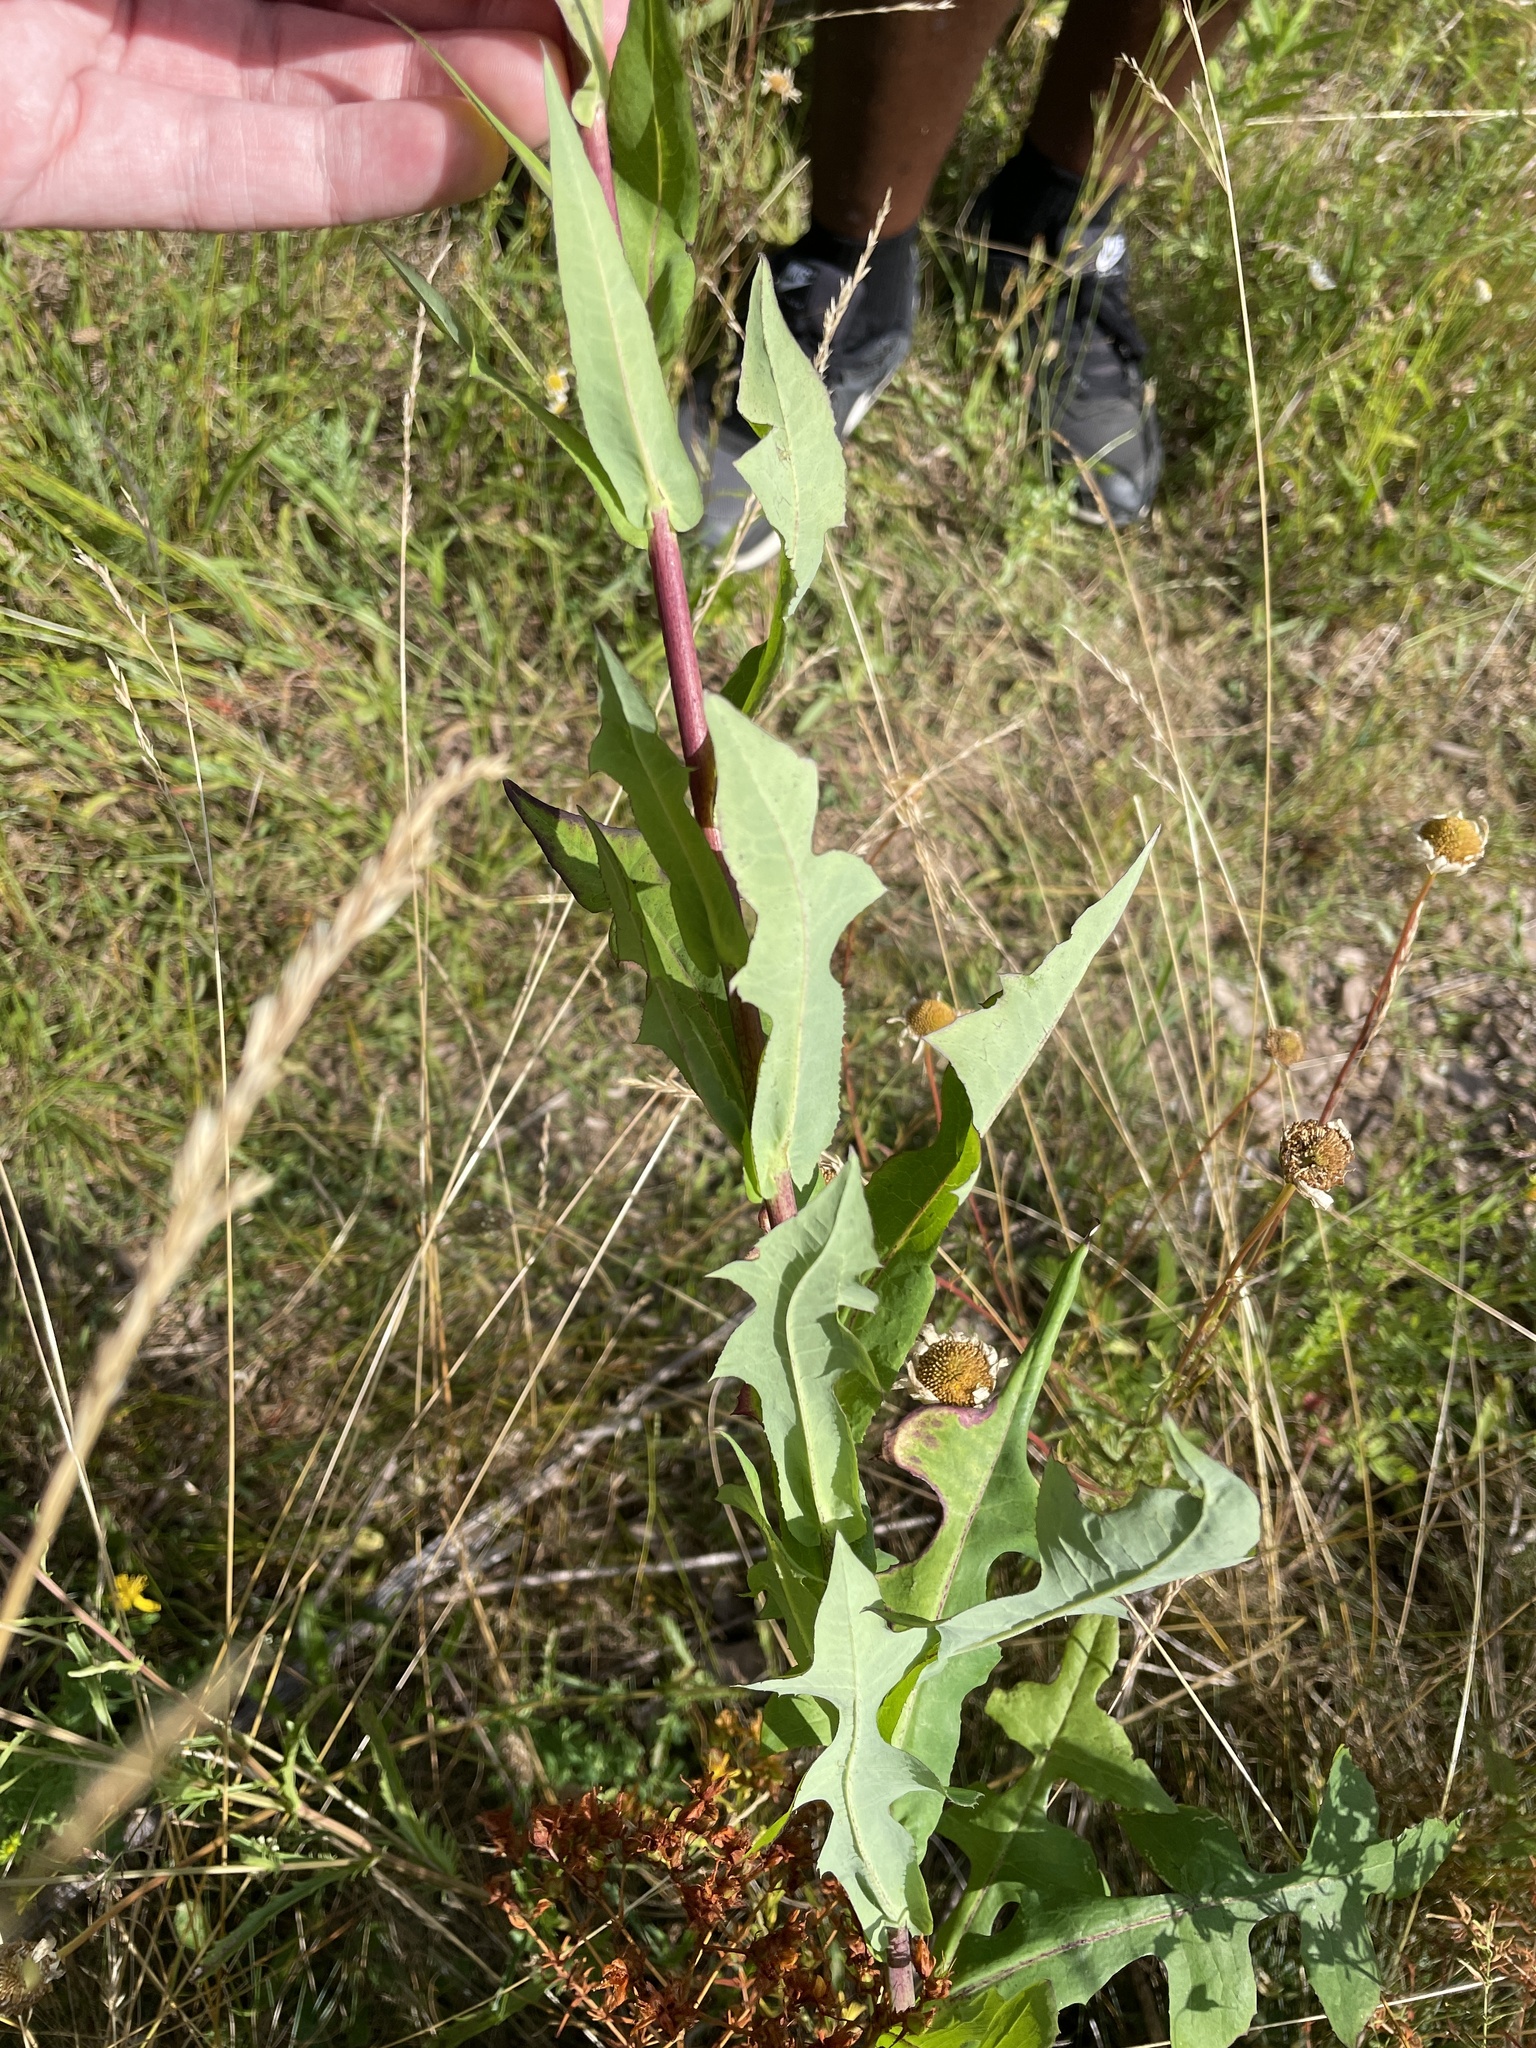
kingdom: Plantae
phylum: Tracheophyta
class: Magnoliopsida
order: Asterales
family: Asteraceae
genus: Lactuca
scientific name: Lactuca canadensis
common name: Canada lettuce
